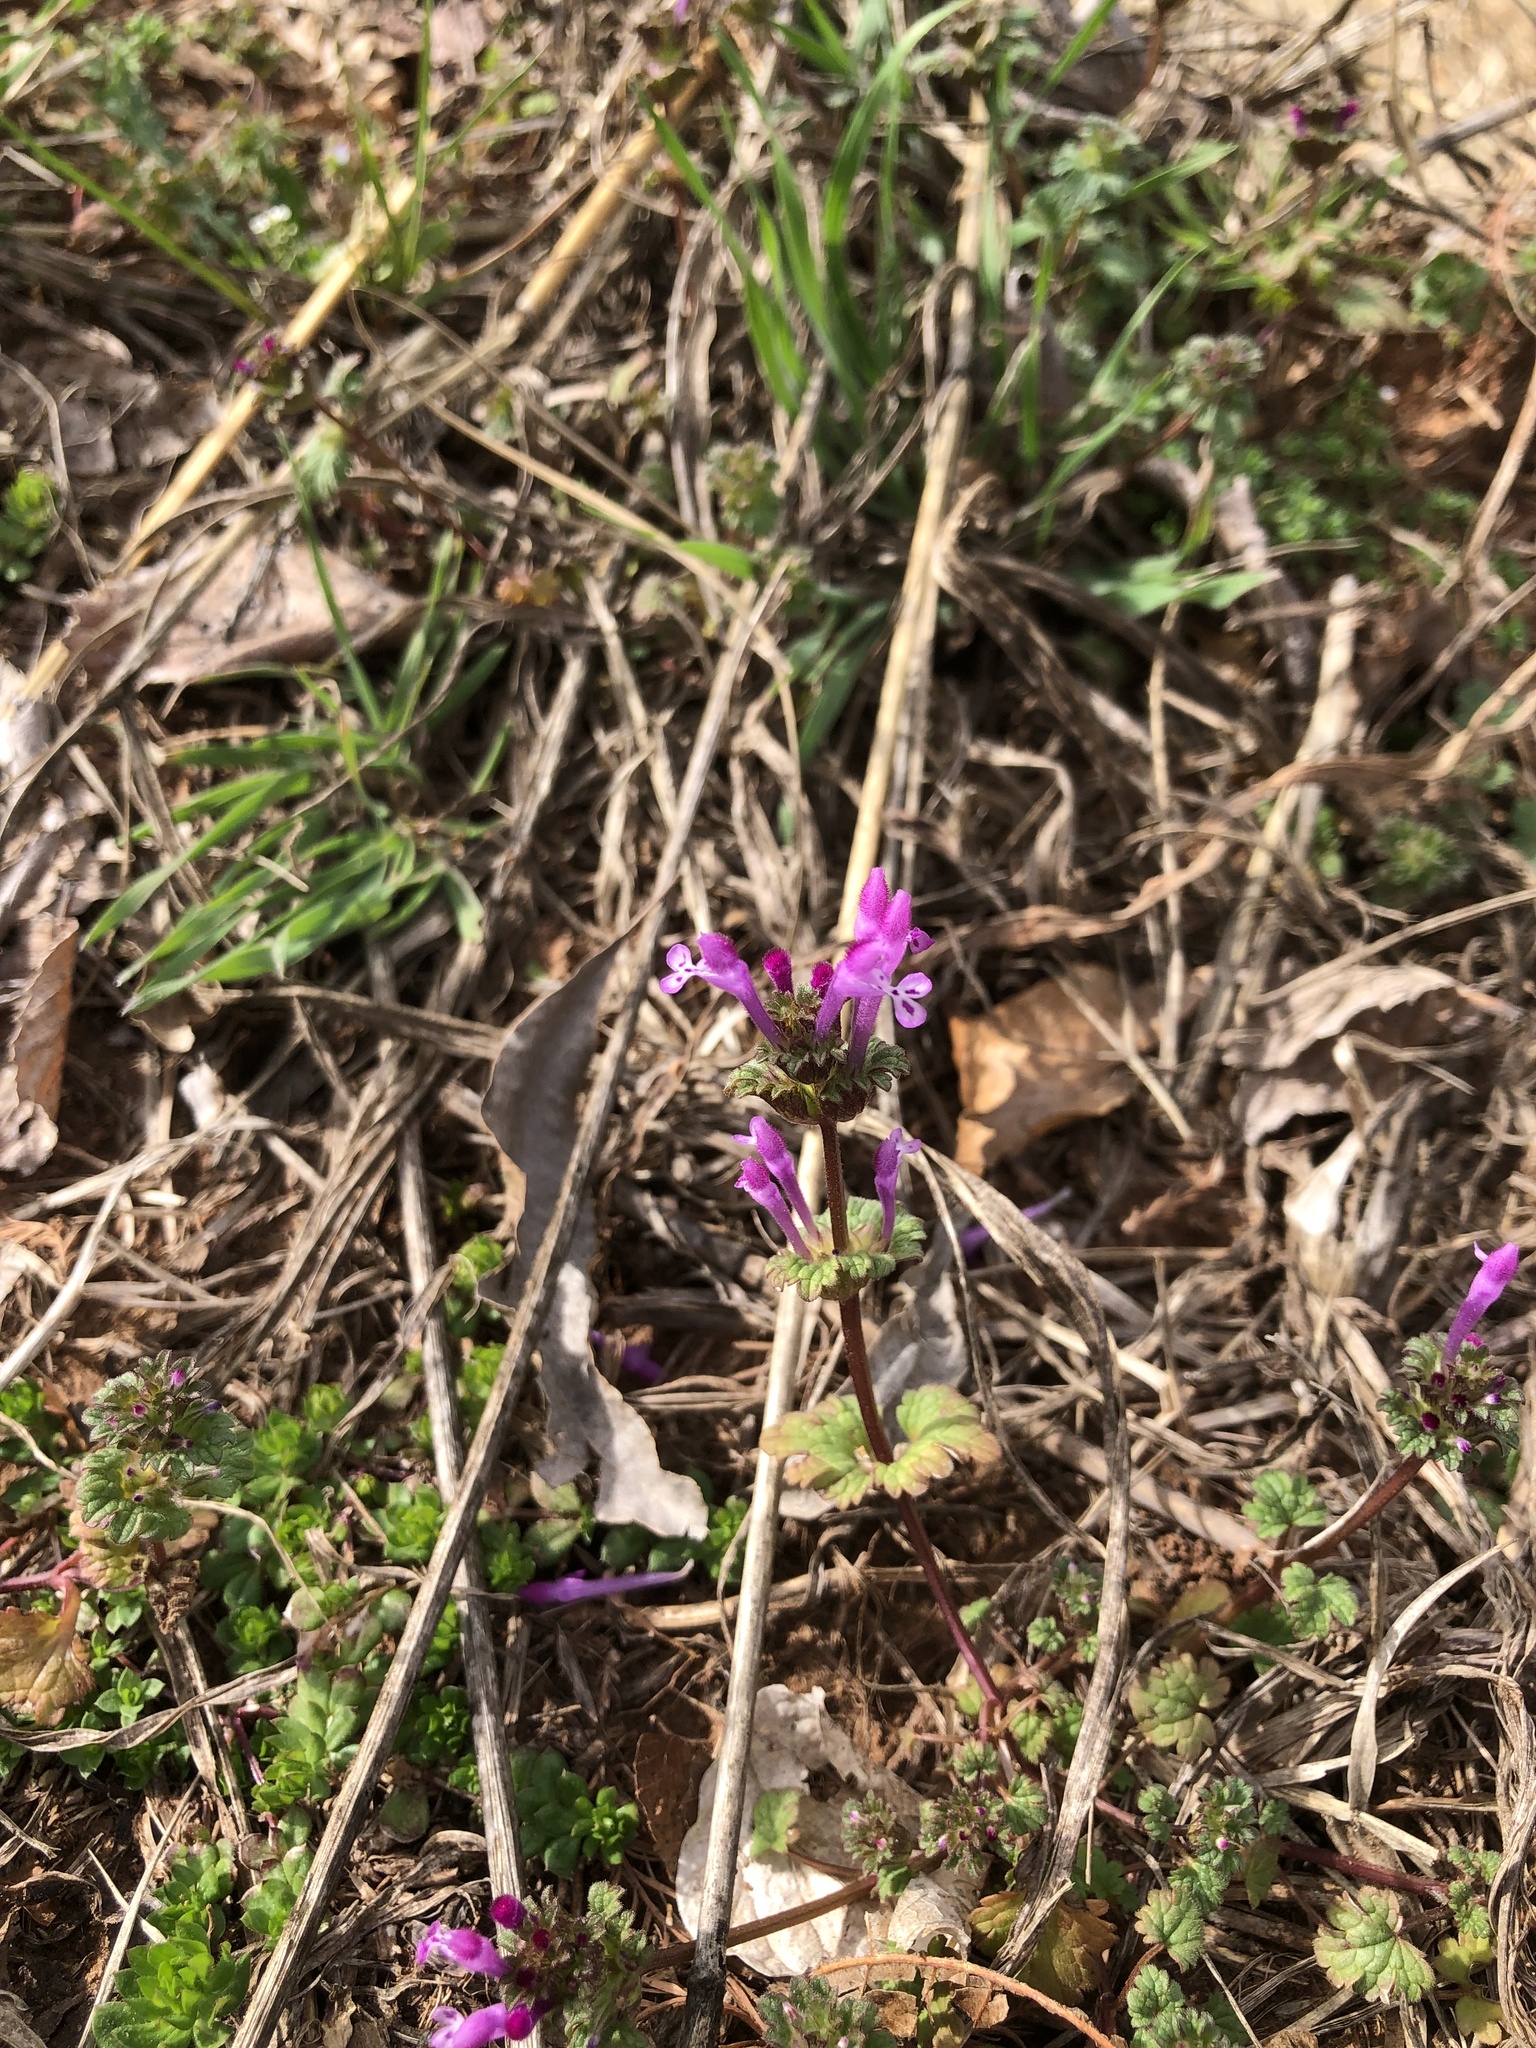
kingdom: Plantae
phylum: Tracheophyta
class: Magnoliopsida
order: Lamiales
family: Lamiaceae
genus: Lamium
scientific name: Lamium amplexicaule
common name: Henbit dead-nettle
